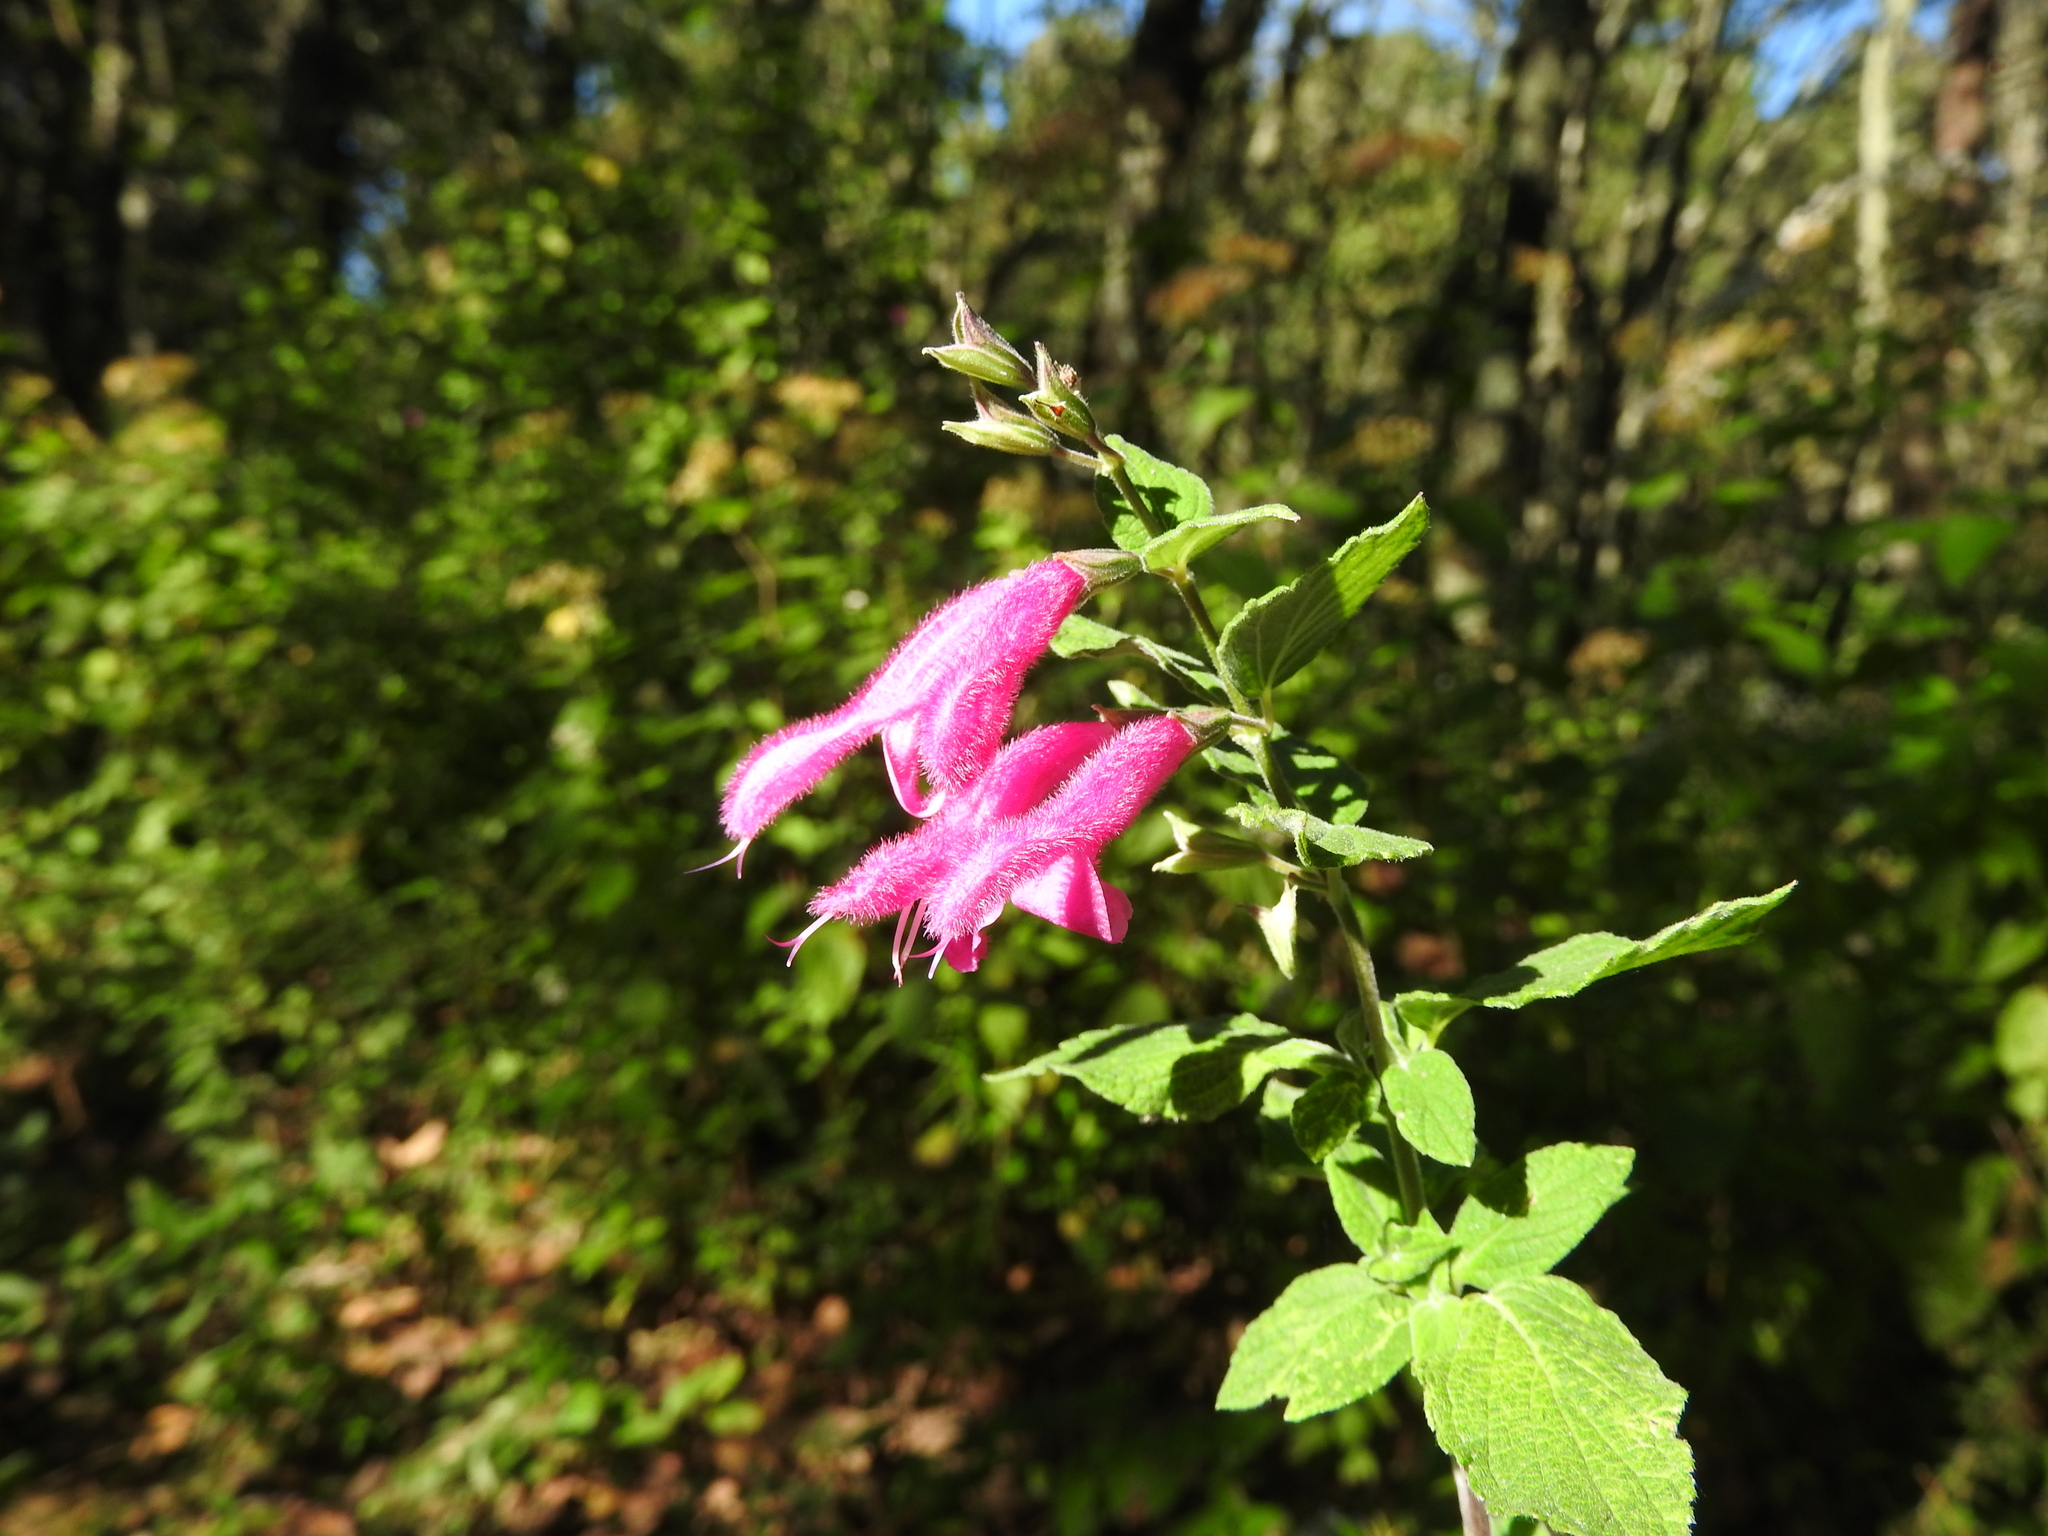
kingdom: Plantae
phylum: Tracheophyta
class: Magnoliopsida
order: Lamiales
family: Lamiaceae
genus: Salvia
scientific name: Salvia curviflora
